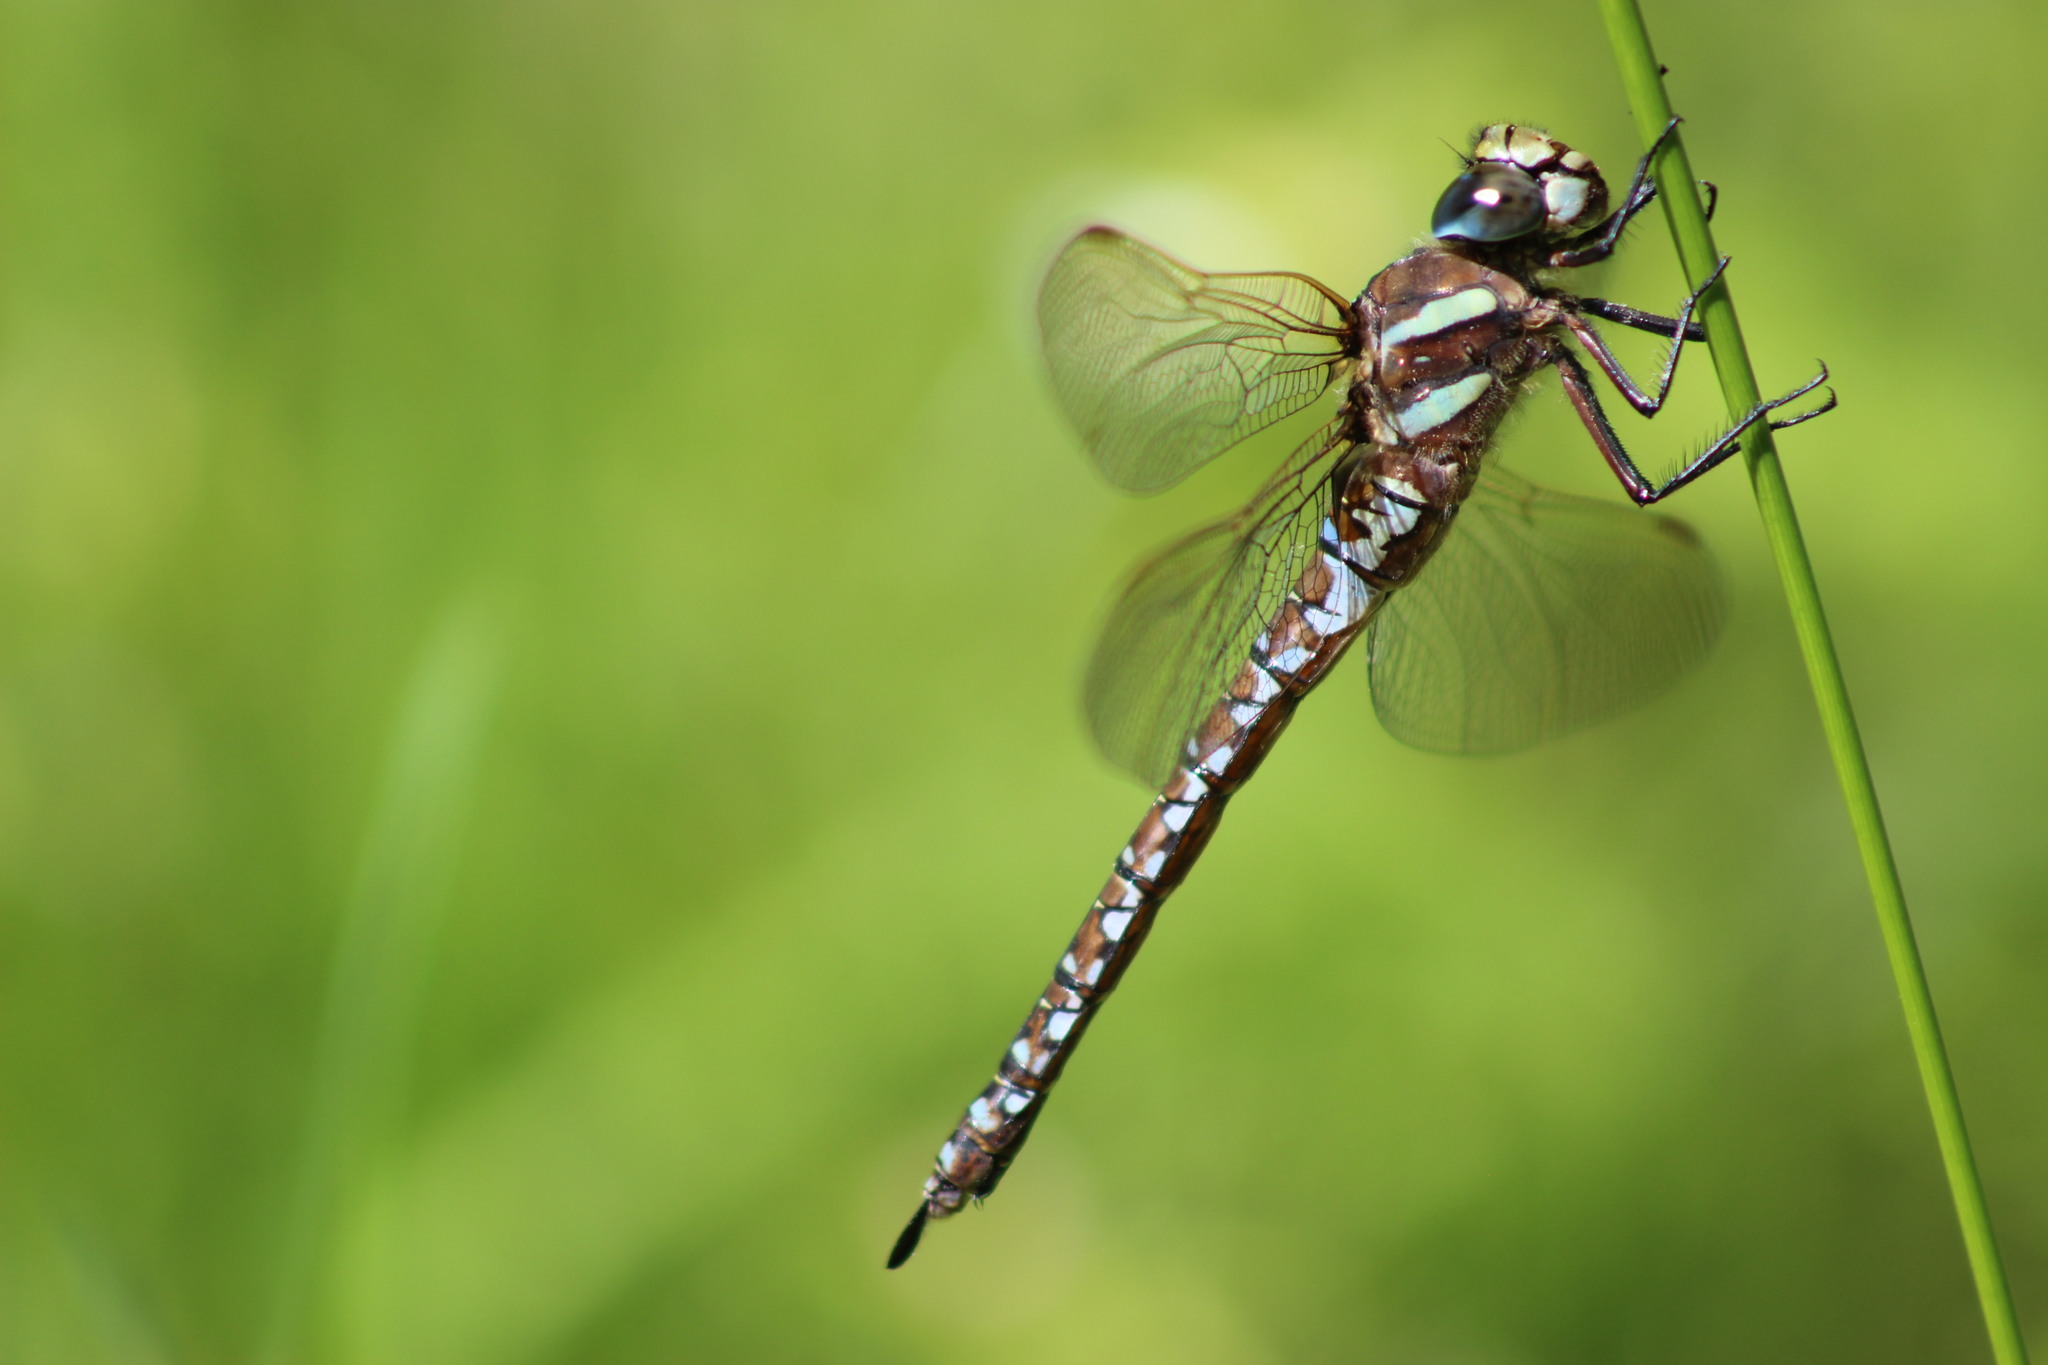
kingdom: Animalia
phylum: Arthropoda
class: Insecta
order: Odonata
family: Aeshnidae
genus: Aeshna
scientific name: Aeshna juncea
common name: Moorland hawker
